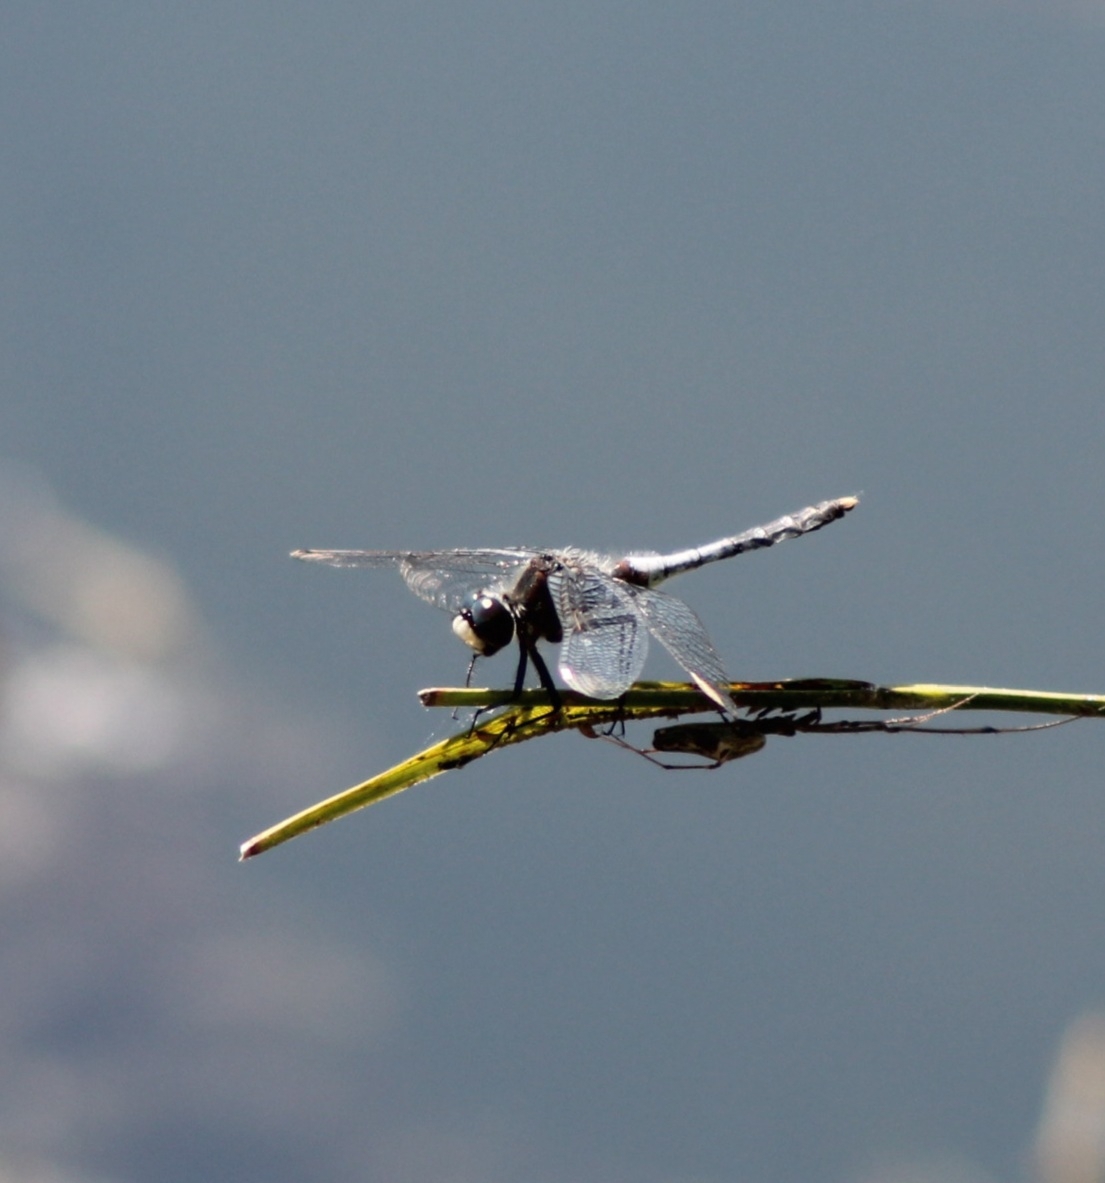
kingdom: Animalia
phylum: Arthropoda
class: Insecta
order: Odonata
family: Libellulidae
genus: Leucorrhinia
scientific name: Leucorrhinia caudalis
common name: Lilypad whiteface
